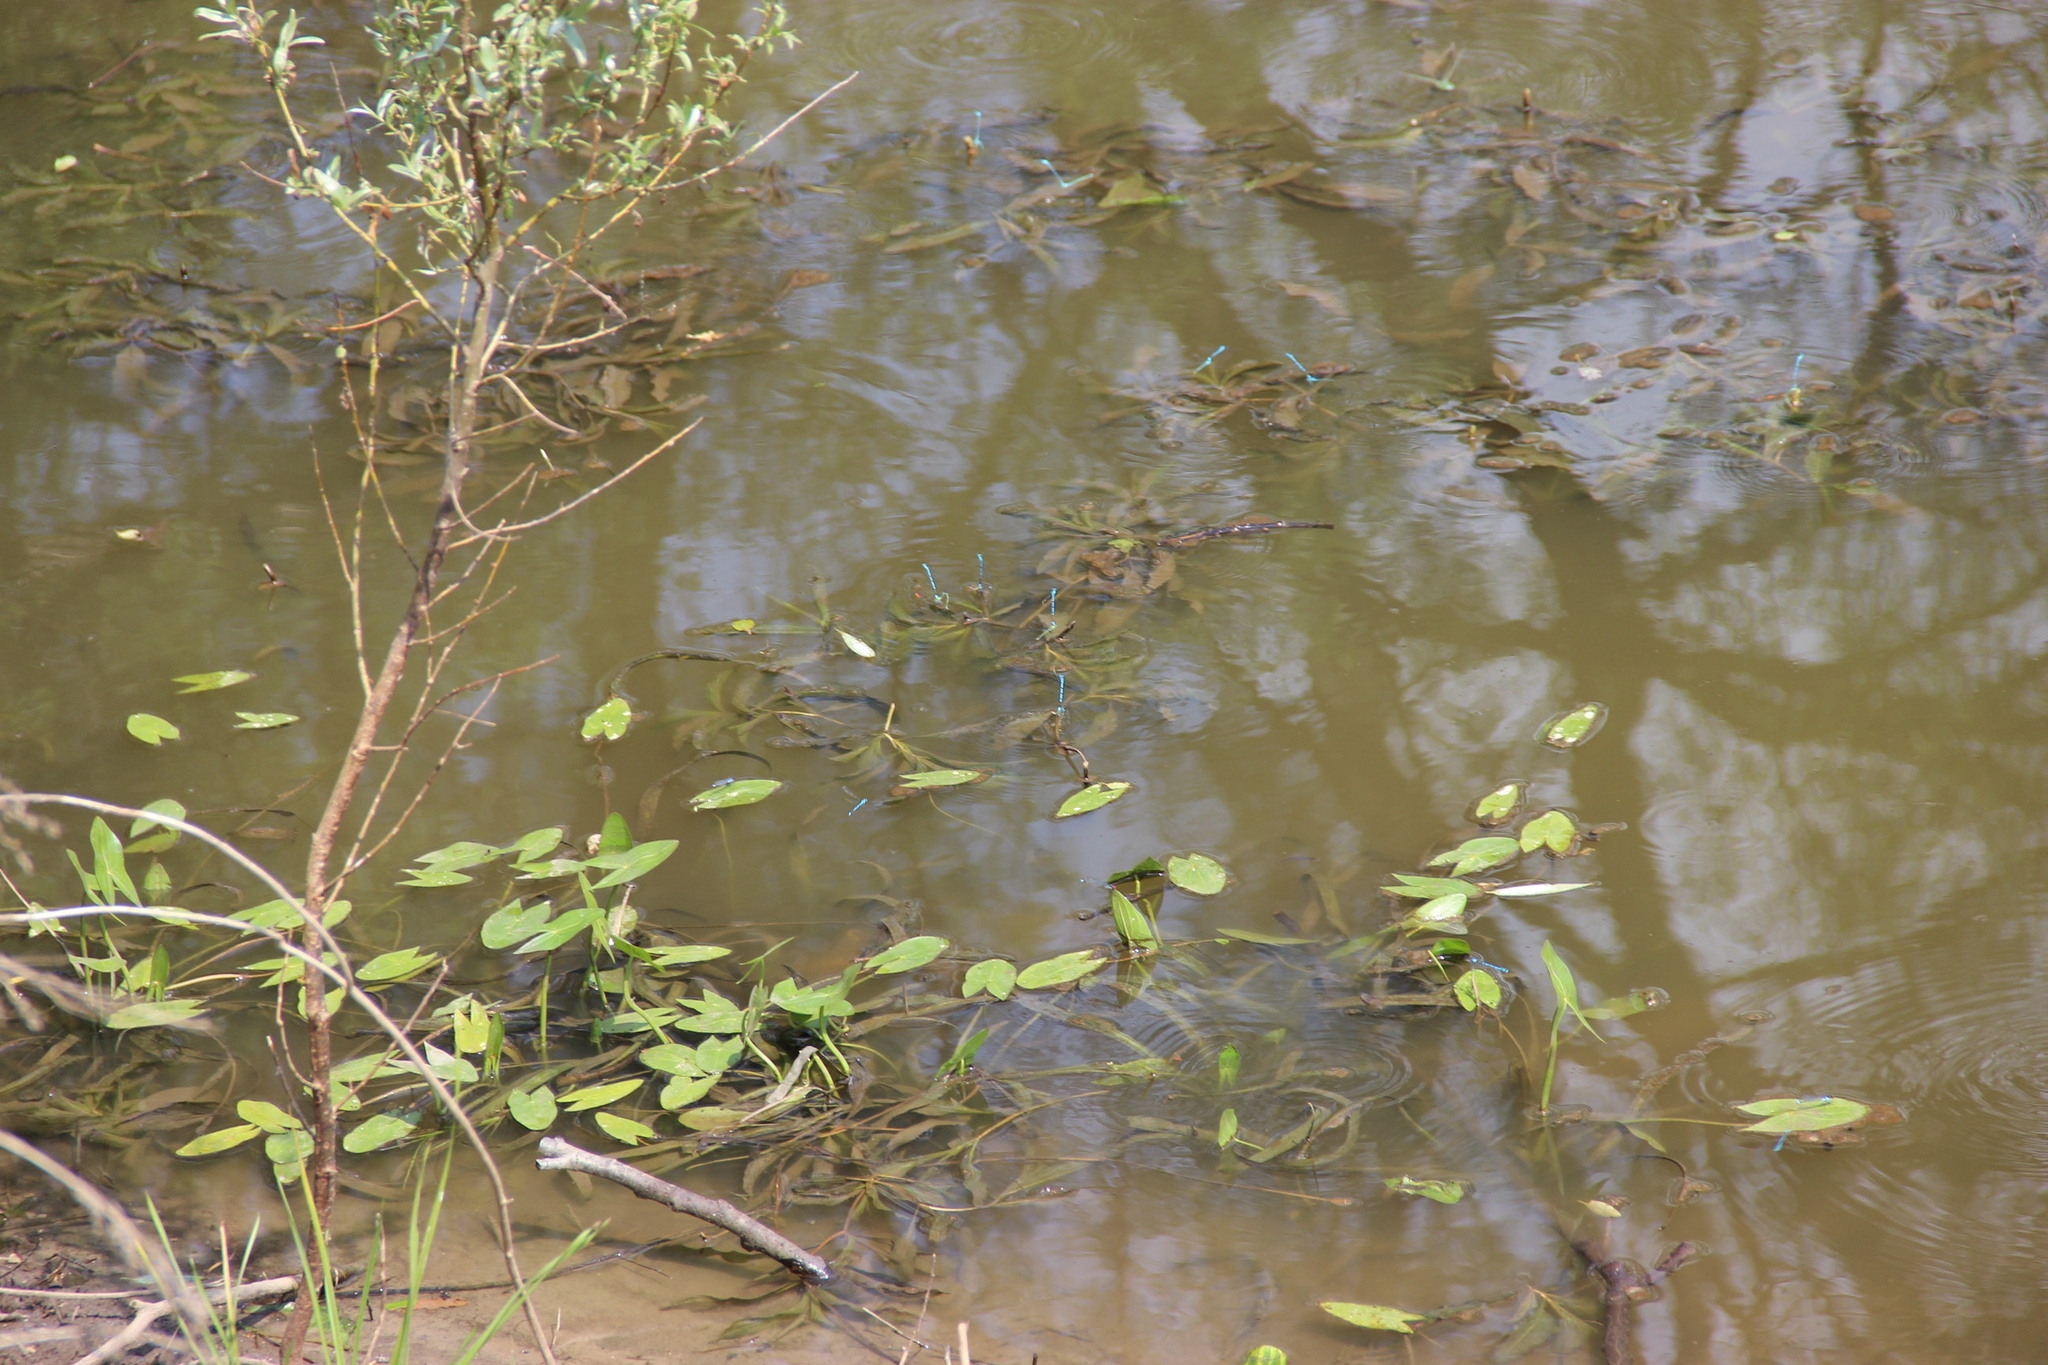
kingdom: Plantae
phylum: Tracheophyta
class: Liliopsida
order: Alismatales
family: Alismataceae
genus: Sagittaria
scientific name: Sagittaria sagittifolia
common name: Arrowhead
